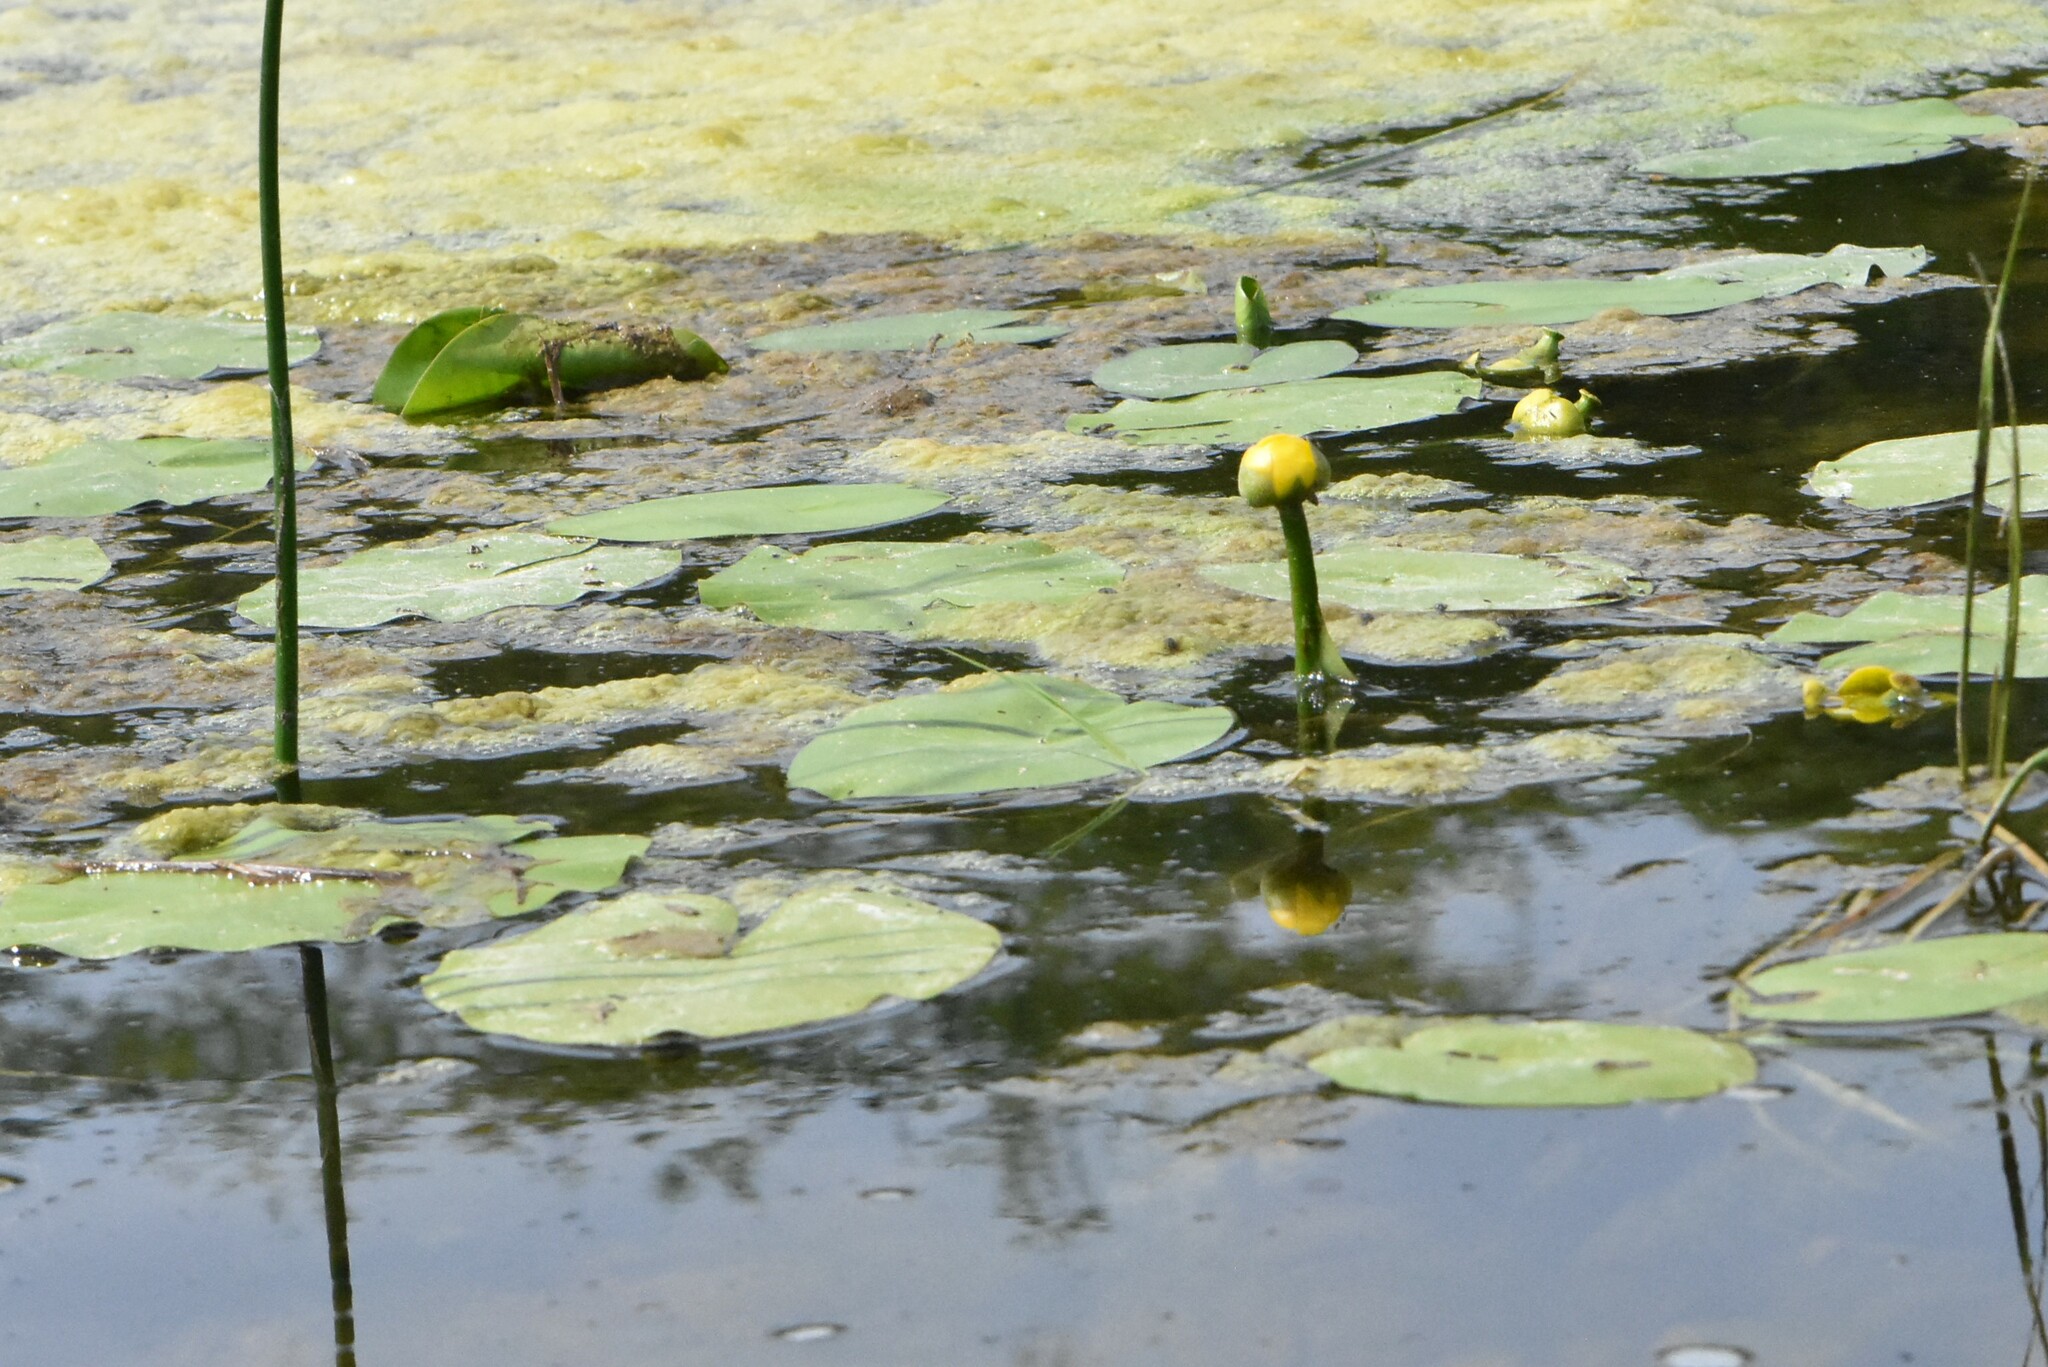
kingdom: Plantae
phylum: Tracheophyta
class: Magnoliopsida
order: Nymphaeales
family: Nymphaeaceae
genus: Nuphar
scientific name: Nuphar lutea
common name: Yellow water-lily
